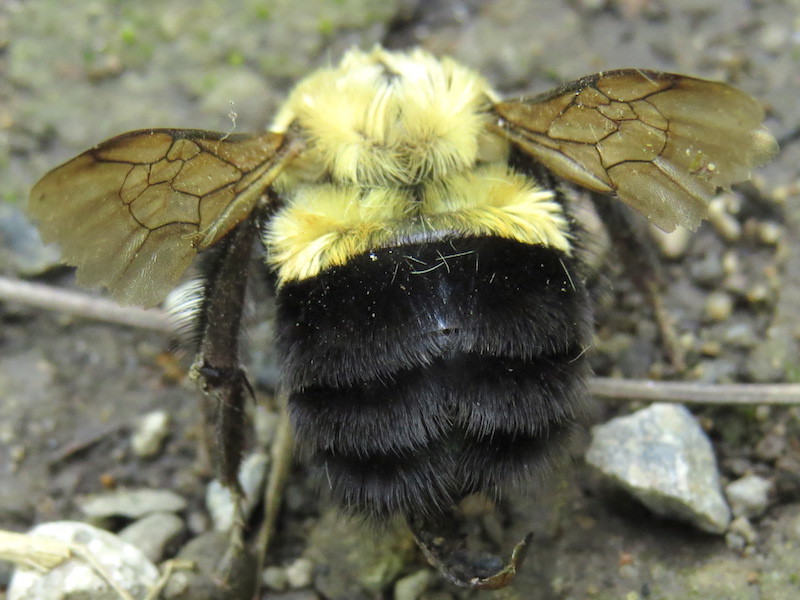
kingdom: Animalia
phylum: Arthropoda
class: Insecta
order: Hymenoptera
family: Apidae
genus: Bombus
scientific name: Bombus impatiens
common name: Common eastern bumble bee
